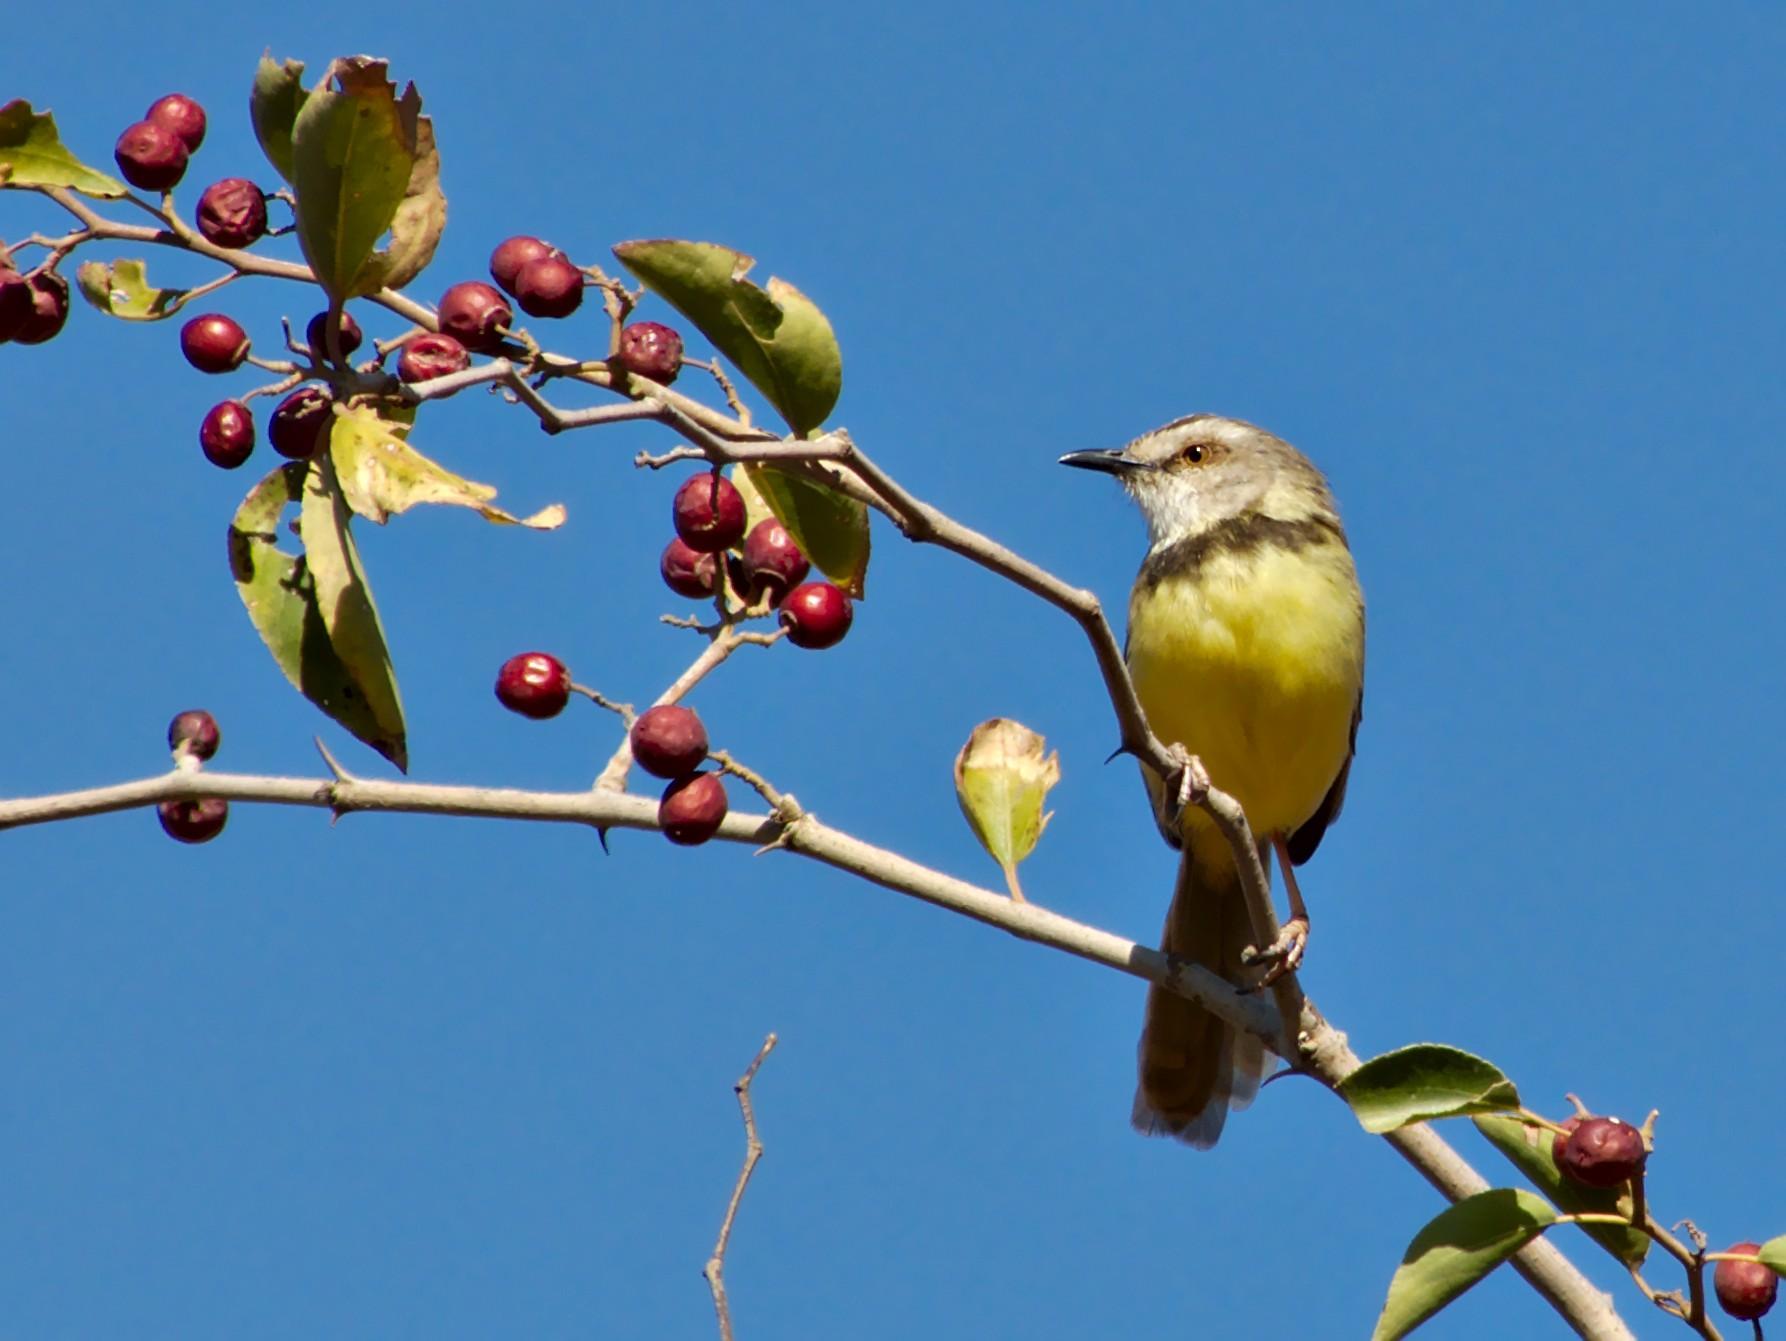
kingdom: Animalia
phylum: Chordata
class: Aves
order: Passeriformes
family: Cisticolidae
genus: Prinia
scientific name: Prinia flavicans
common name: Black-chested prinia
